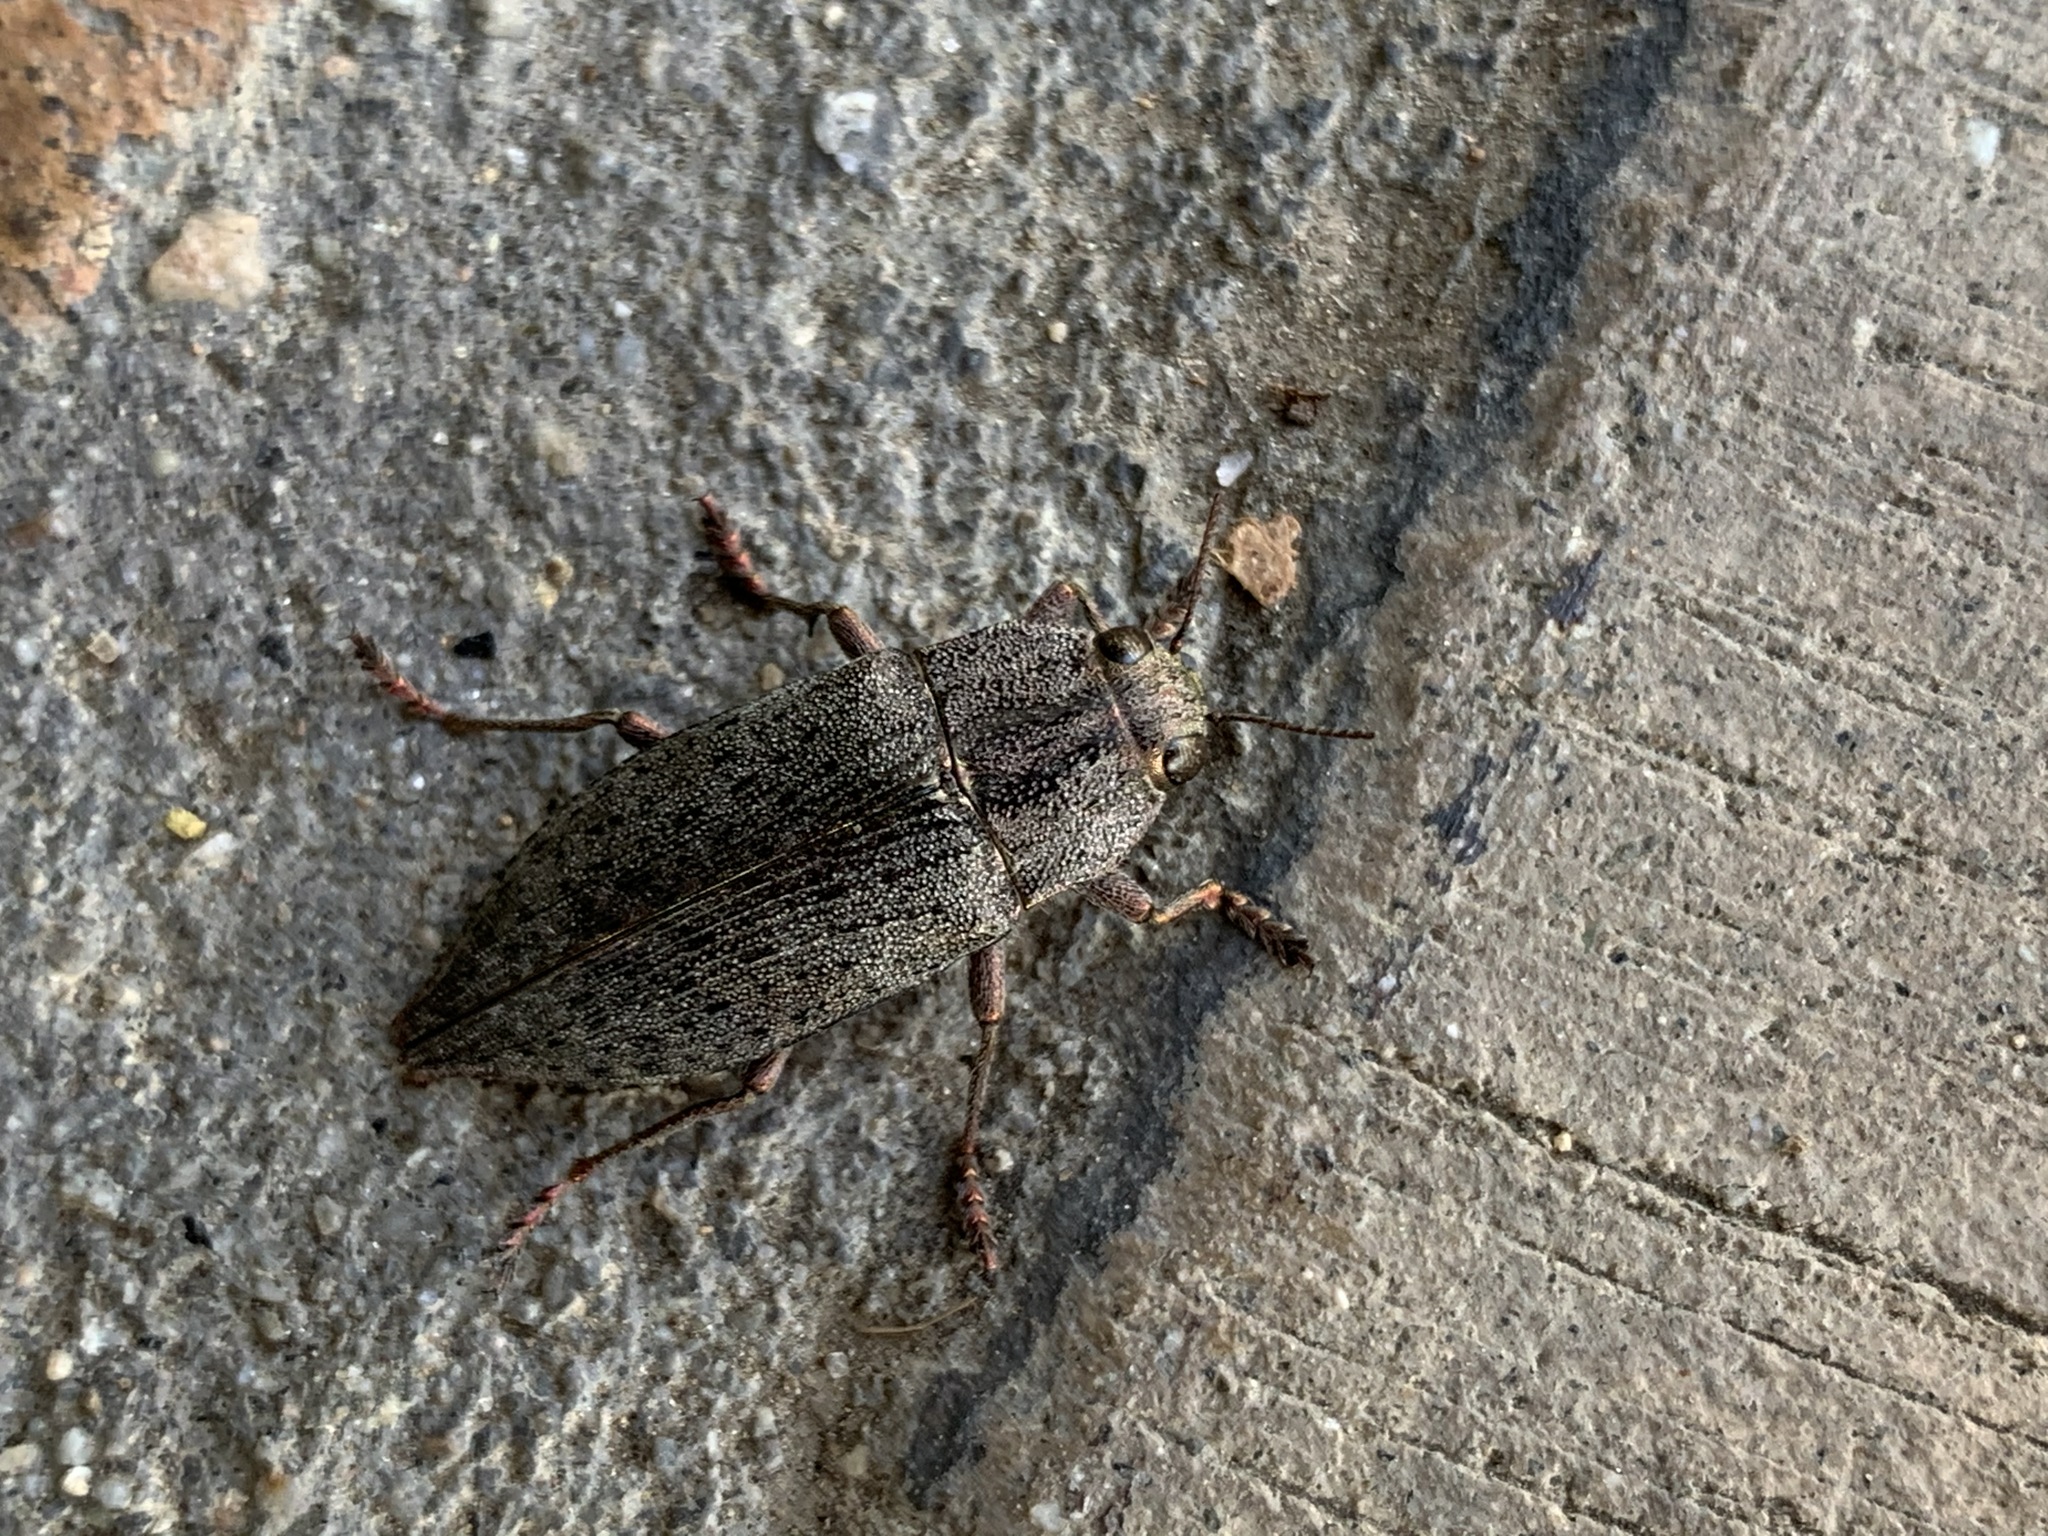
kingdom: Animalia
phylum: Arthropoda
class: Insecta
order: Coleoptera
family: Buprestidae
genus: Dicerca
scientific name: Dicerca hornii
